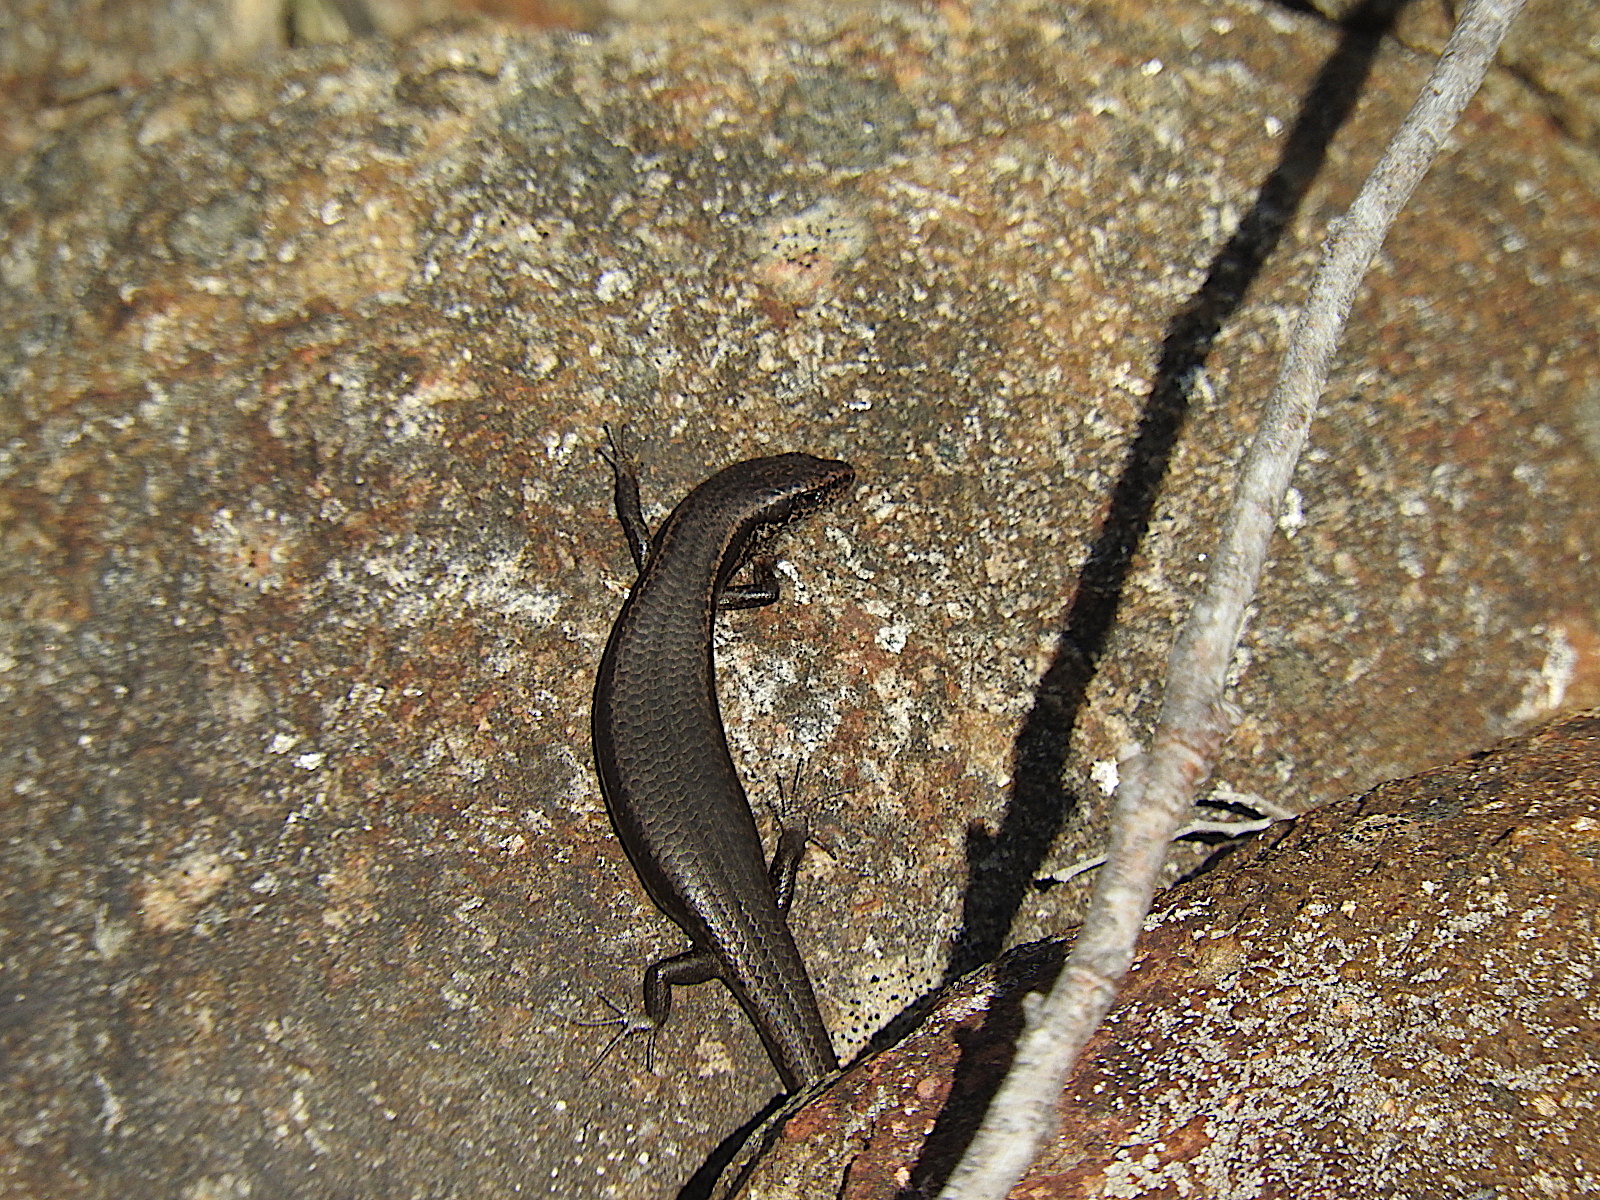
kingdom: Animalia
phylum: Chordata
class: Squamata
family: Scincidae
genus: Carinascincus
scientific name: Carinascincus metallicus
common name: Metallic cool-skink
